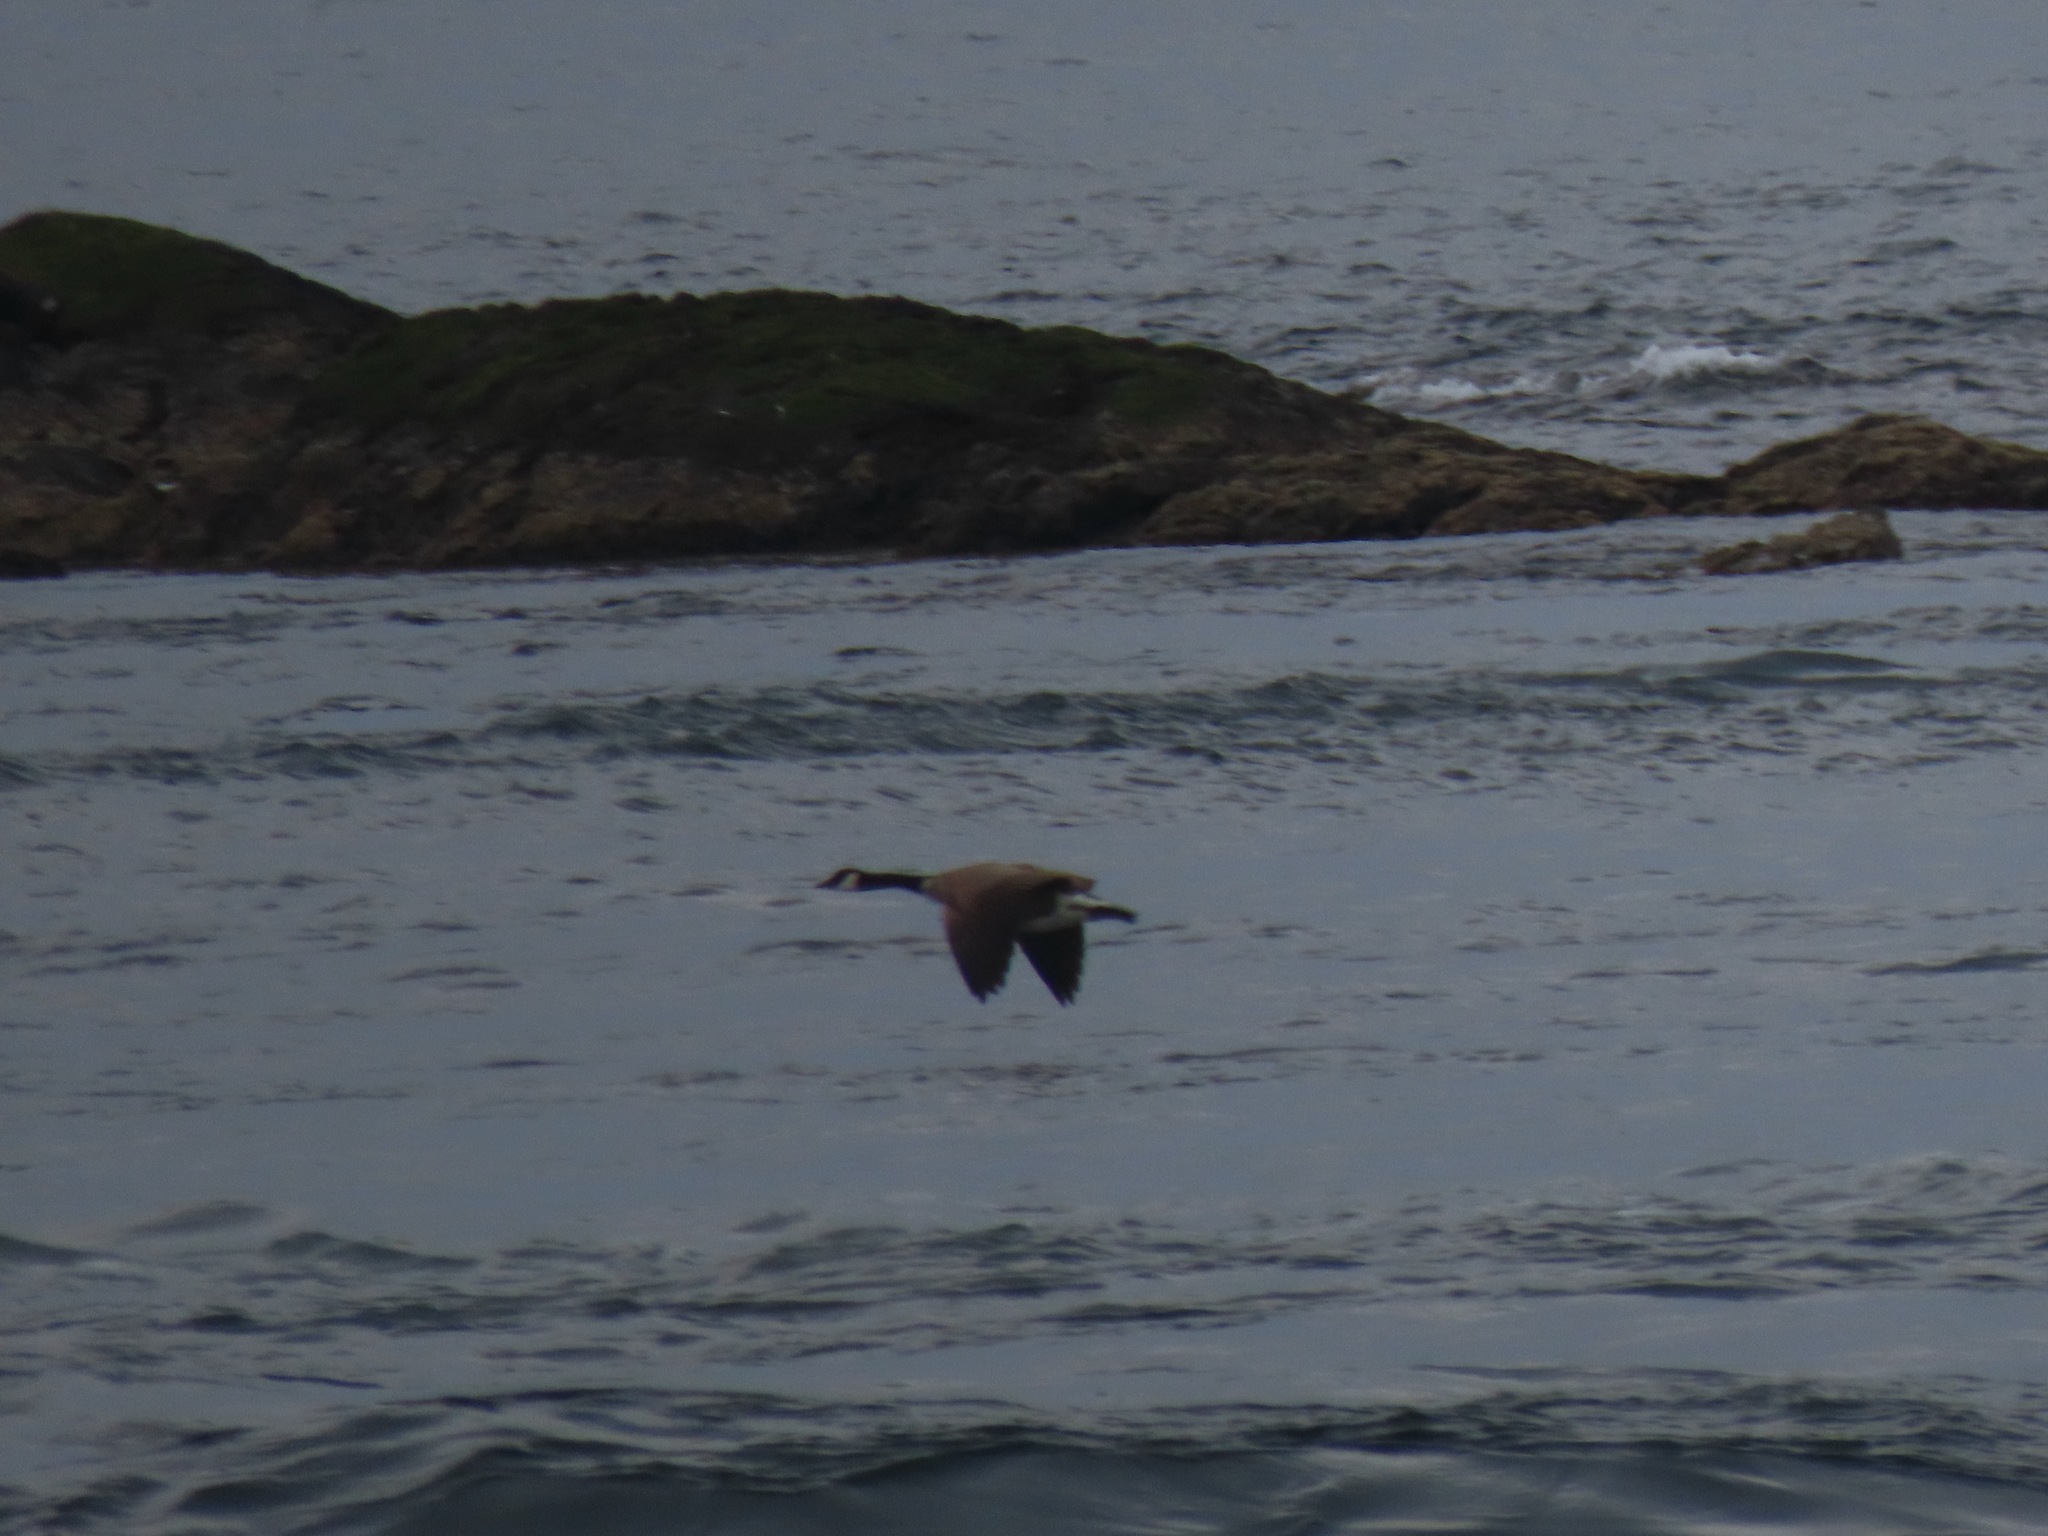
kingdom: Animalia
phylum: Chordata
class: Aves
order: Anseriformes
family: Anatidae
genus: Branta
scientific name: Branta canadensis
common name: Canada goose
